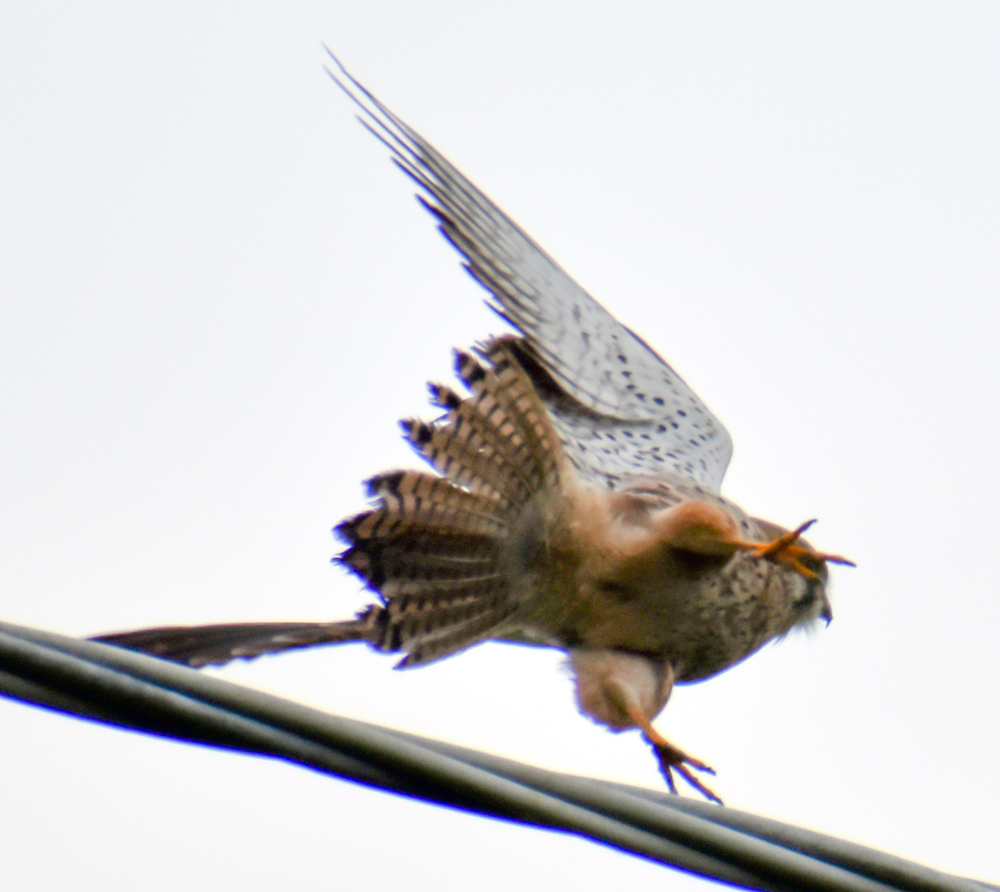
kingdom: Animalia
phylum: Chordata
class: Aves
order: Falconiformes
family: Falconidae
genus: Falco
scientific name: Falco tinnunculus
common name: Common kestrel
